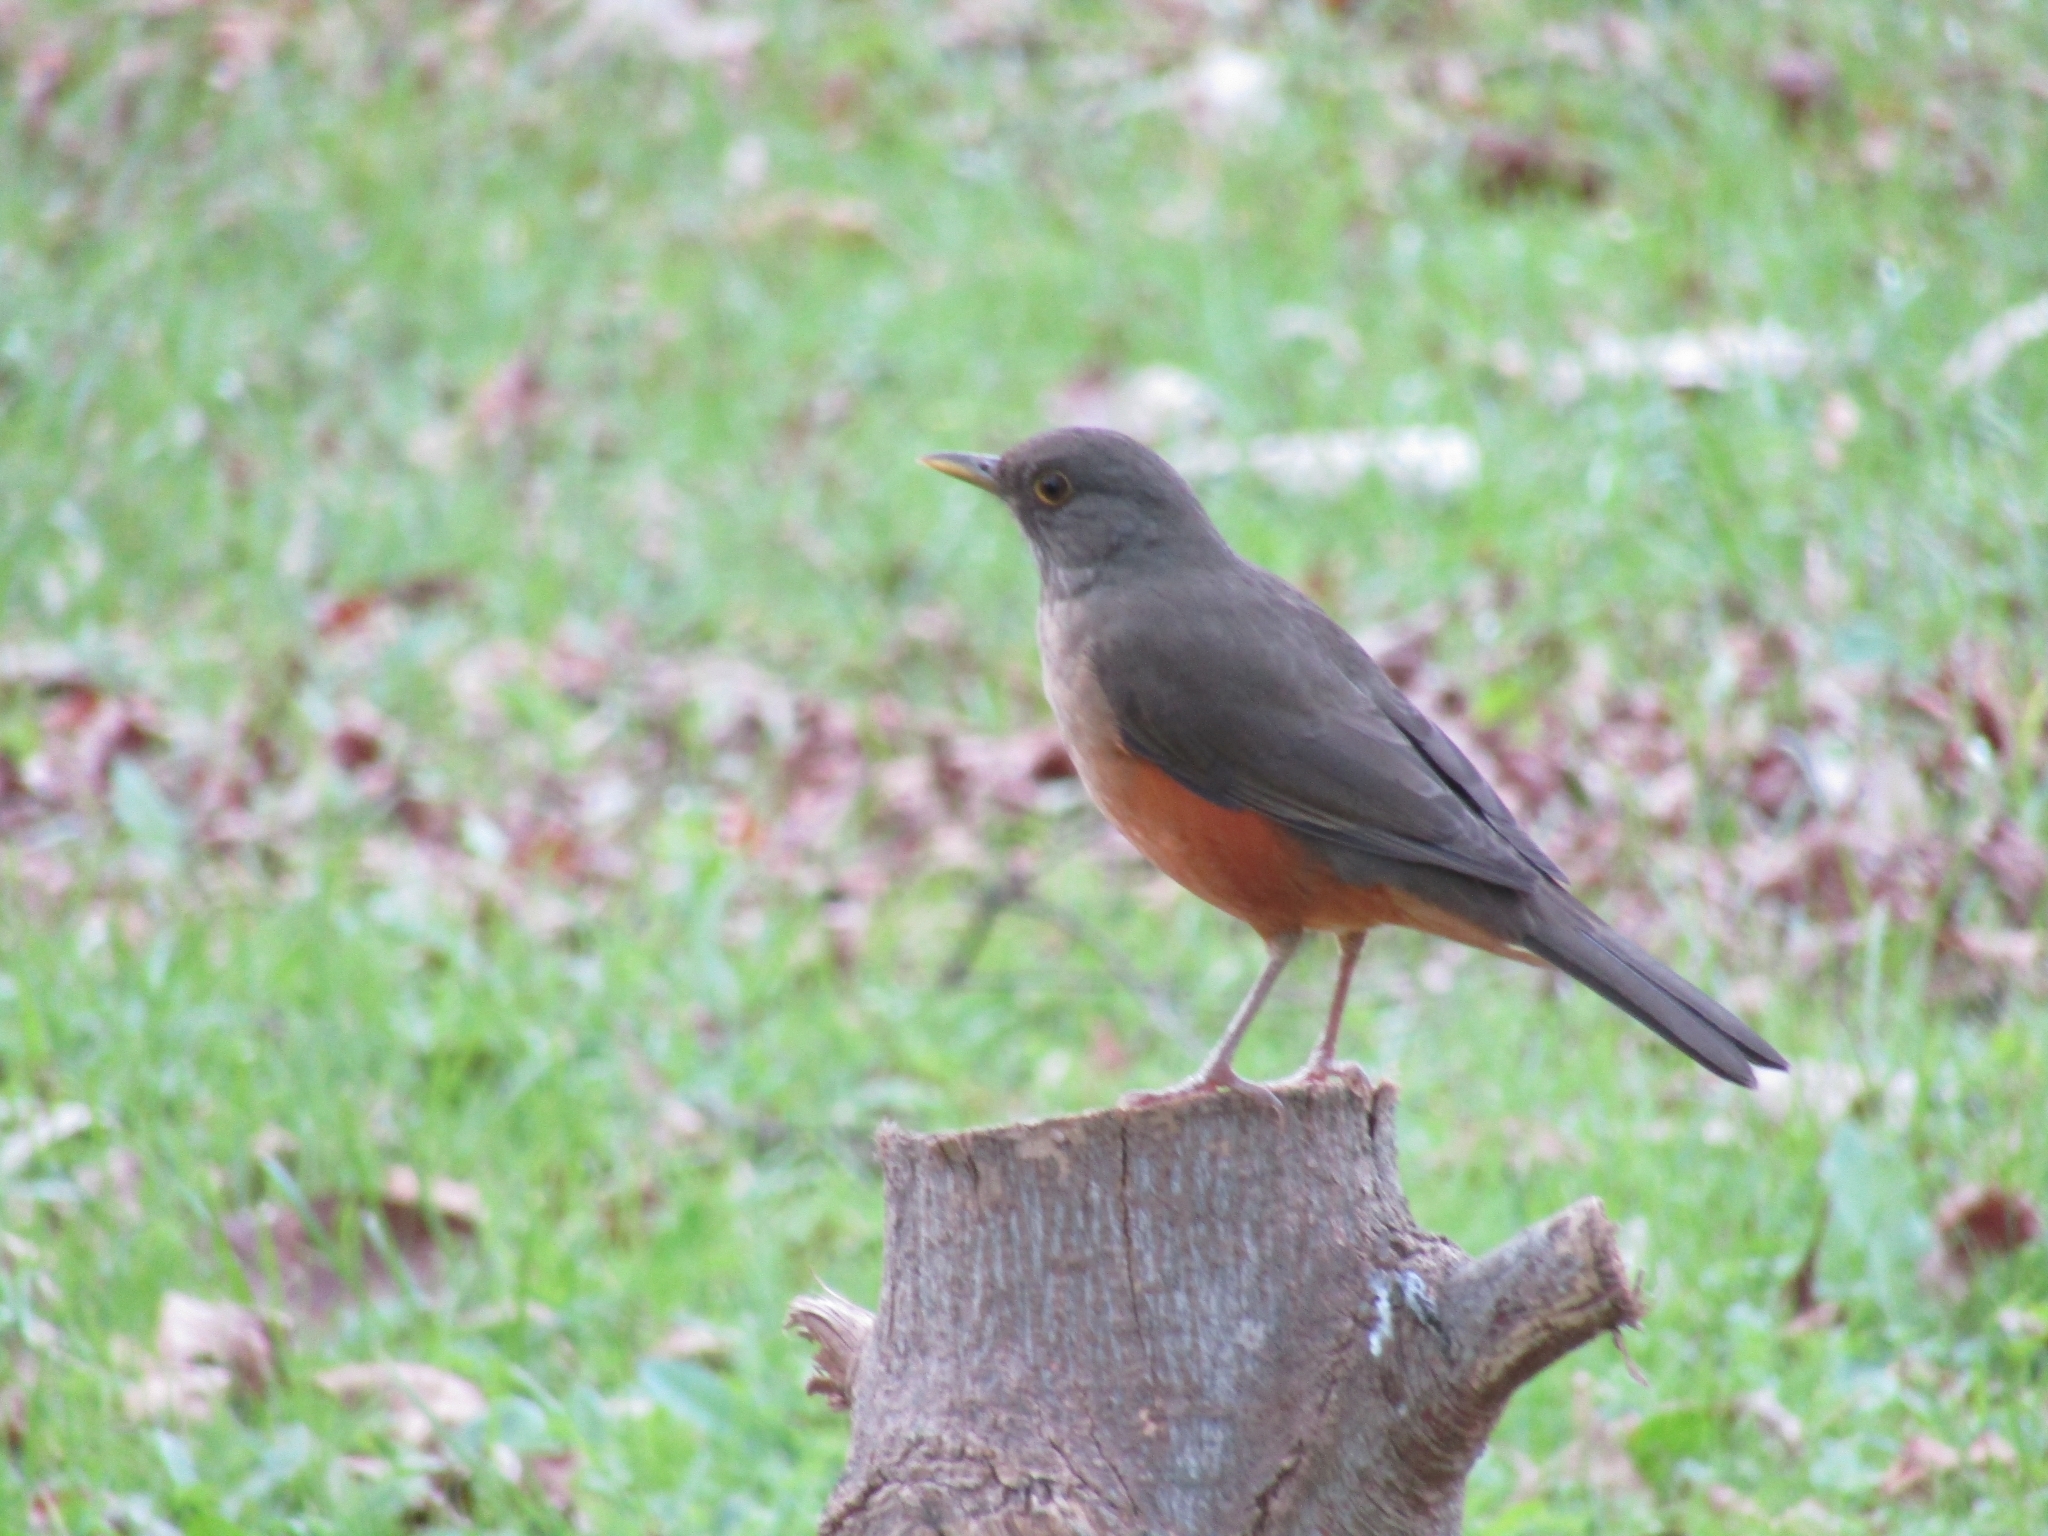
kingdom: Animalia
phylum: Chordata
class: Aves
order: Passeriformes
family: Turdidae
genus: Turdus
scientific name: Turdus rufiventris
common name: Rufous-bellied thrush
